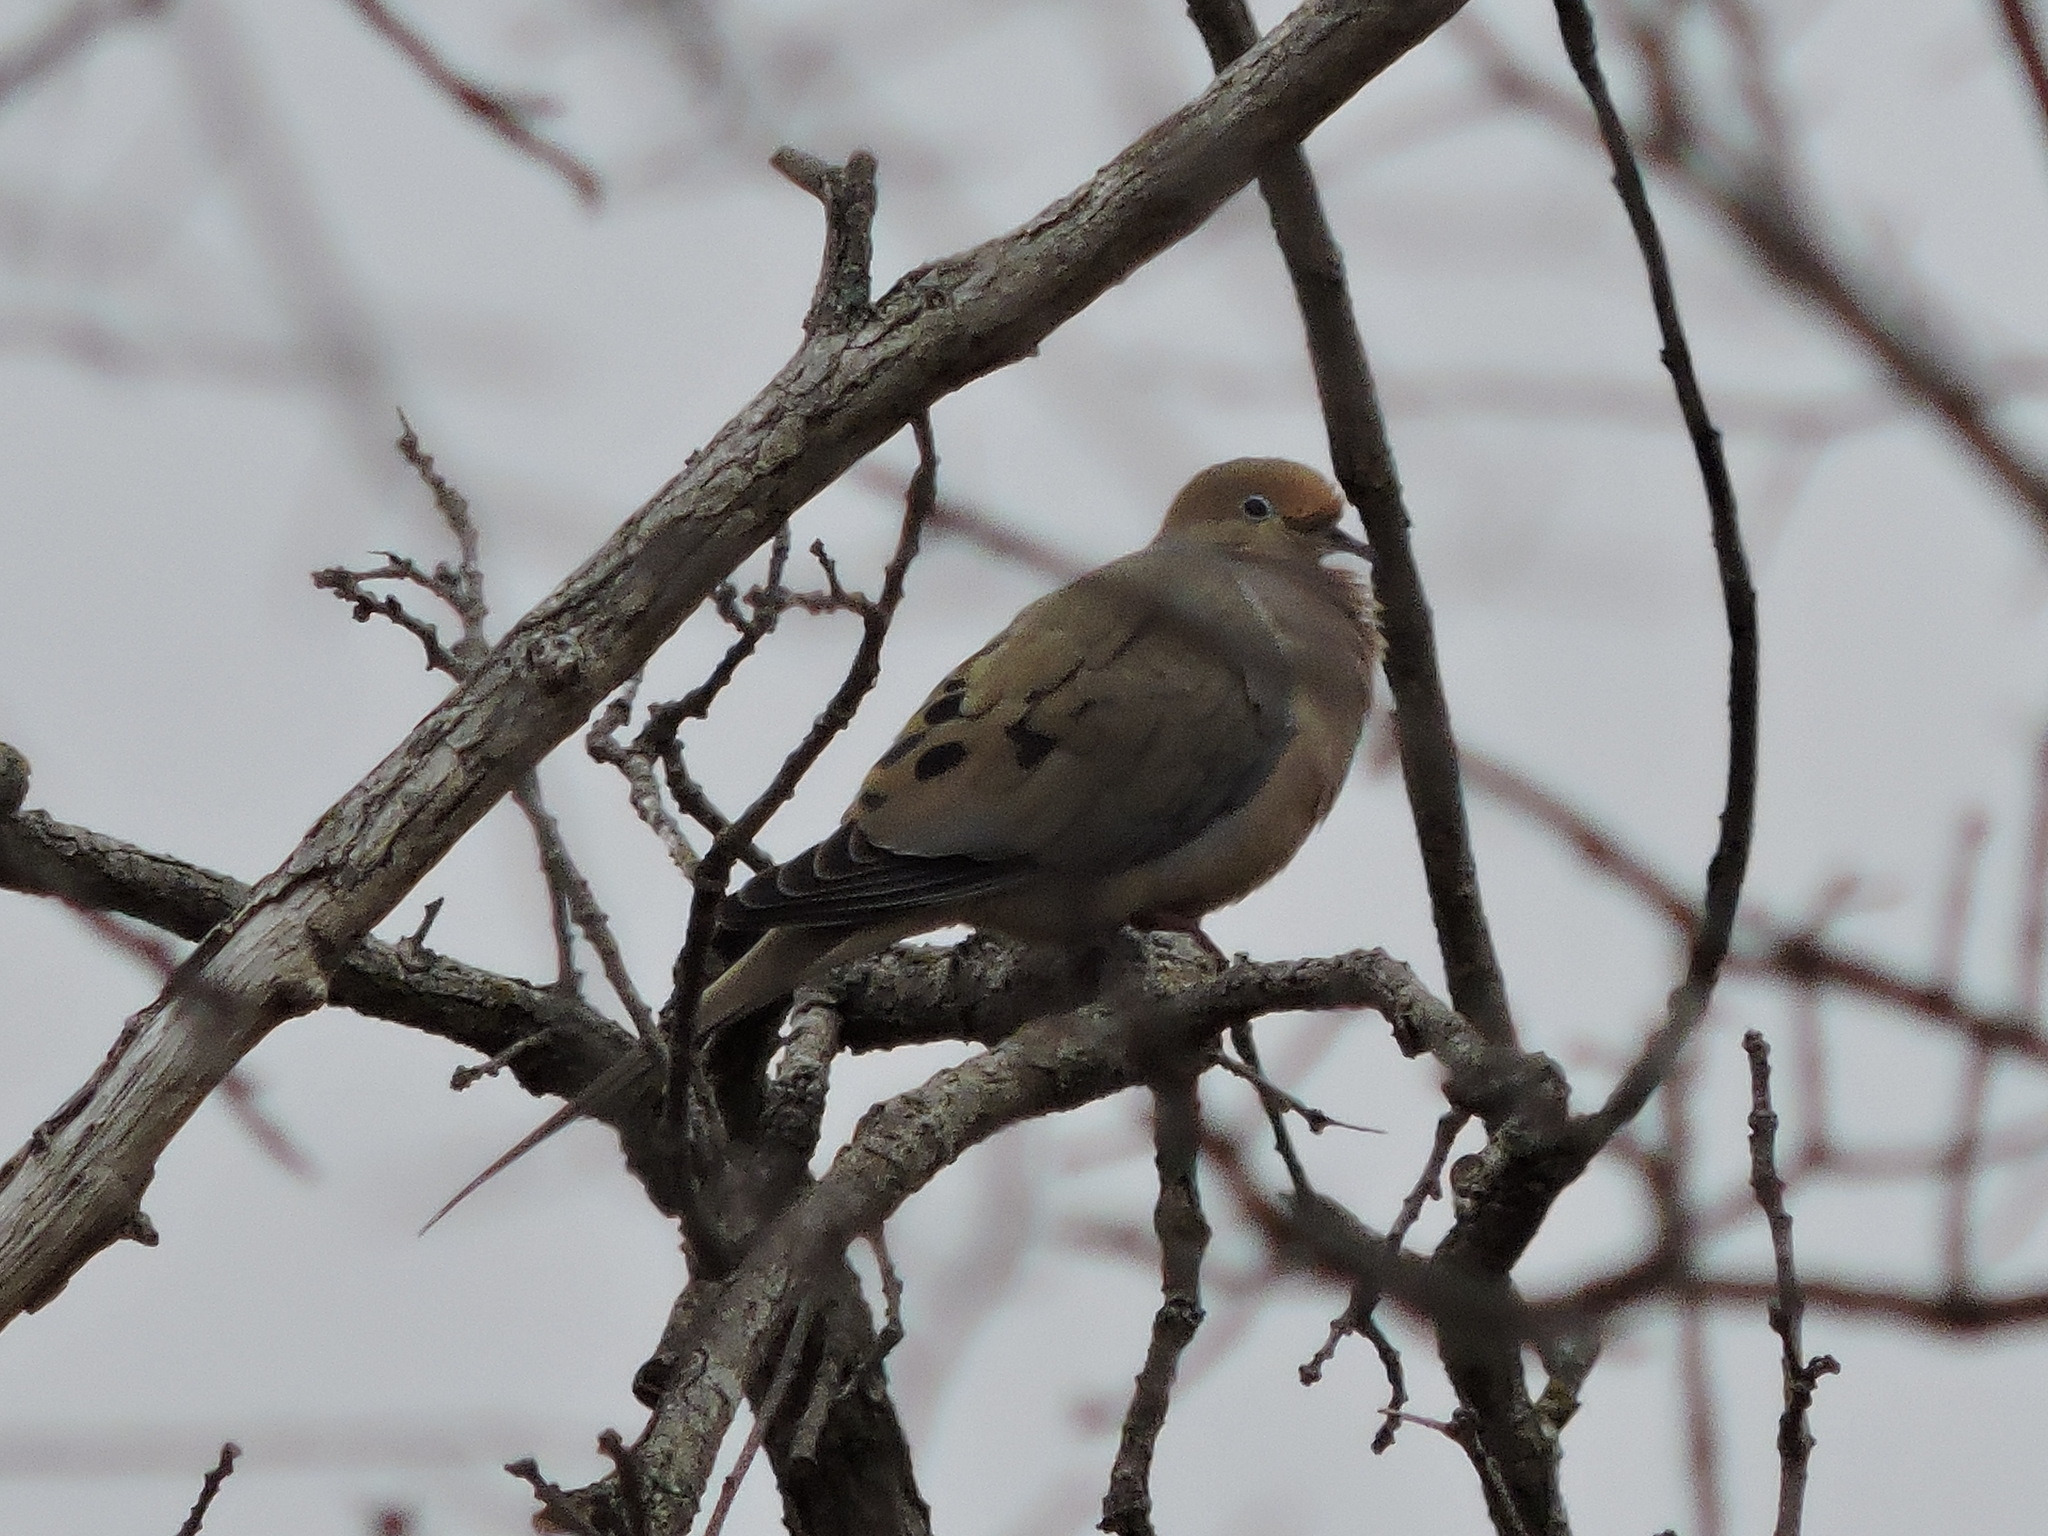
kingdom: Animalia
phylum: Chordata
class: Aves
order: Columbiformes
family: Columbidae
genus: Zenaida
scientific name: Zenaida macroura
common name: Mourning dove
